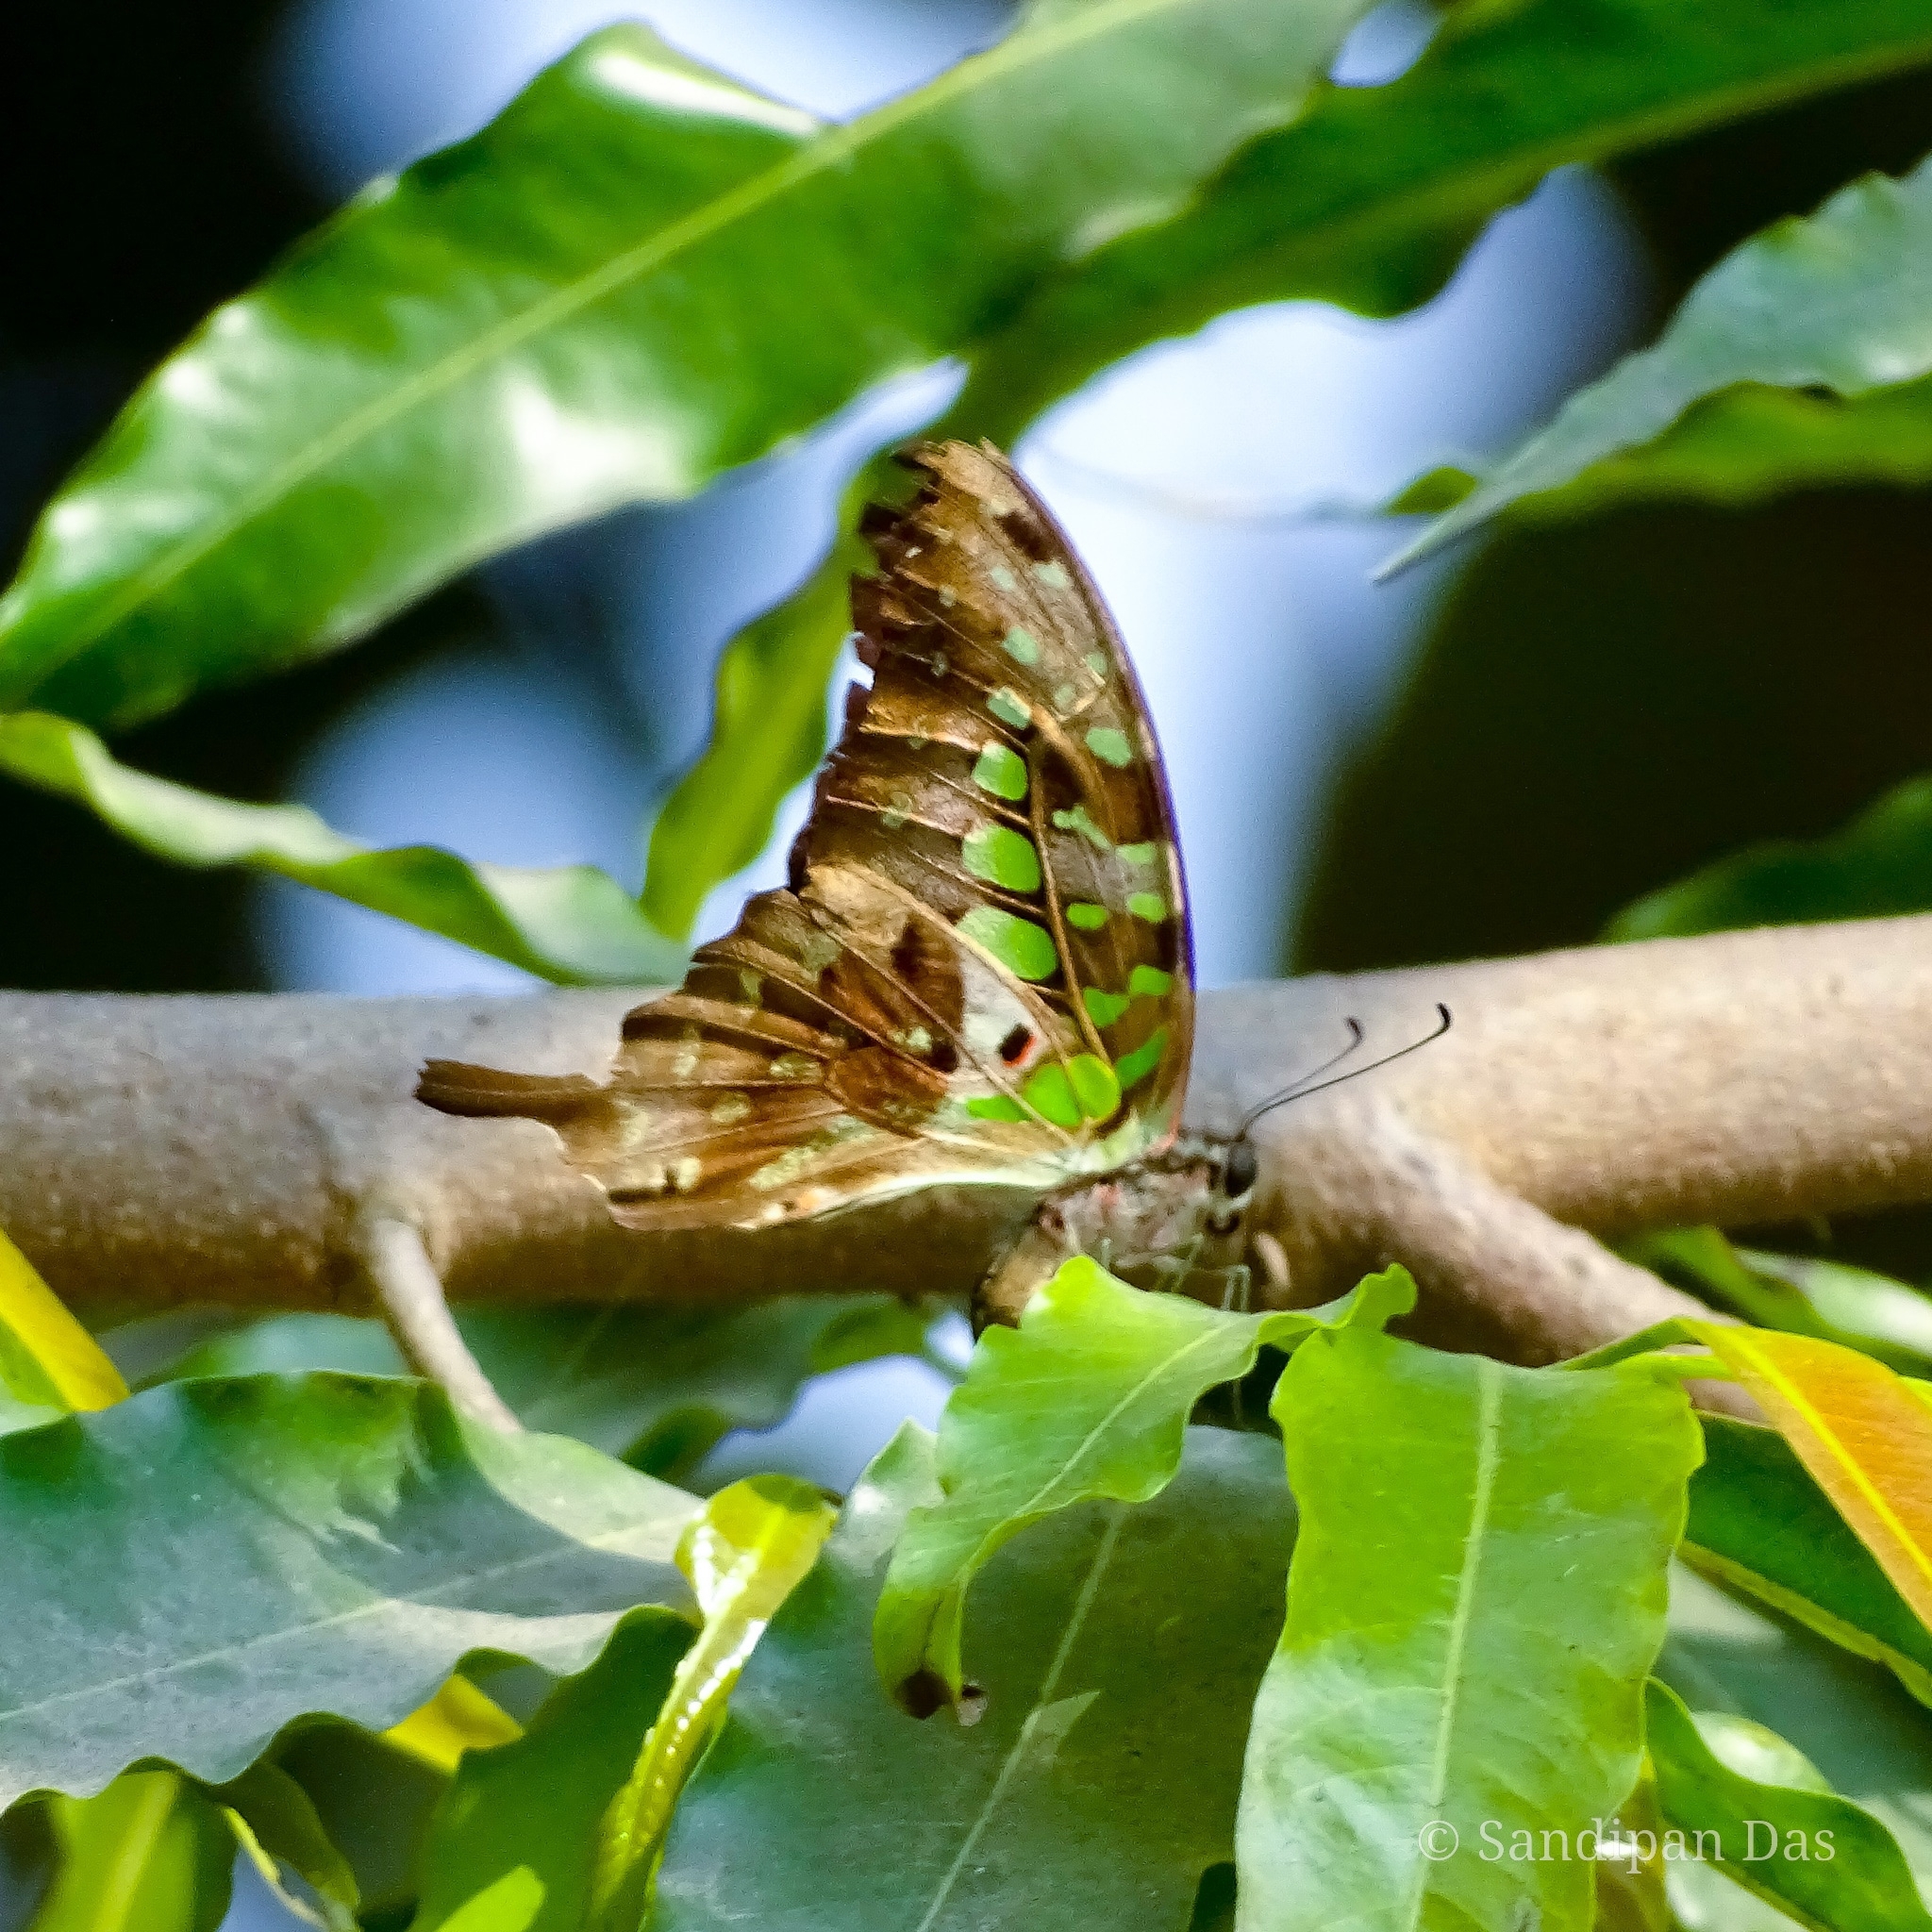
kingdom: Animalia
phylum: Arthropoda
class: Insecta
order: Lepidoptera
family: Papilionidae
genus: Graphium
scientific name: Graphium agamemnon
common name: Tailed jay
